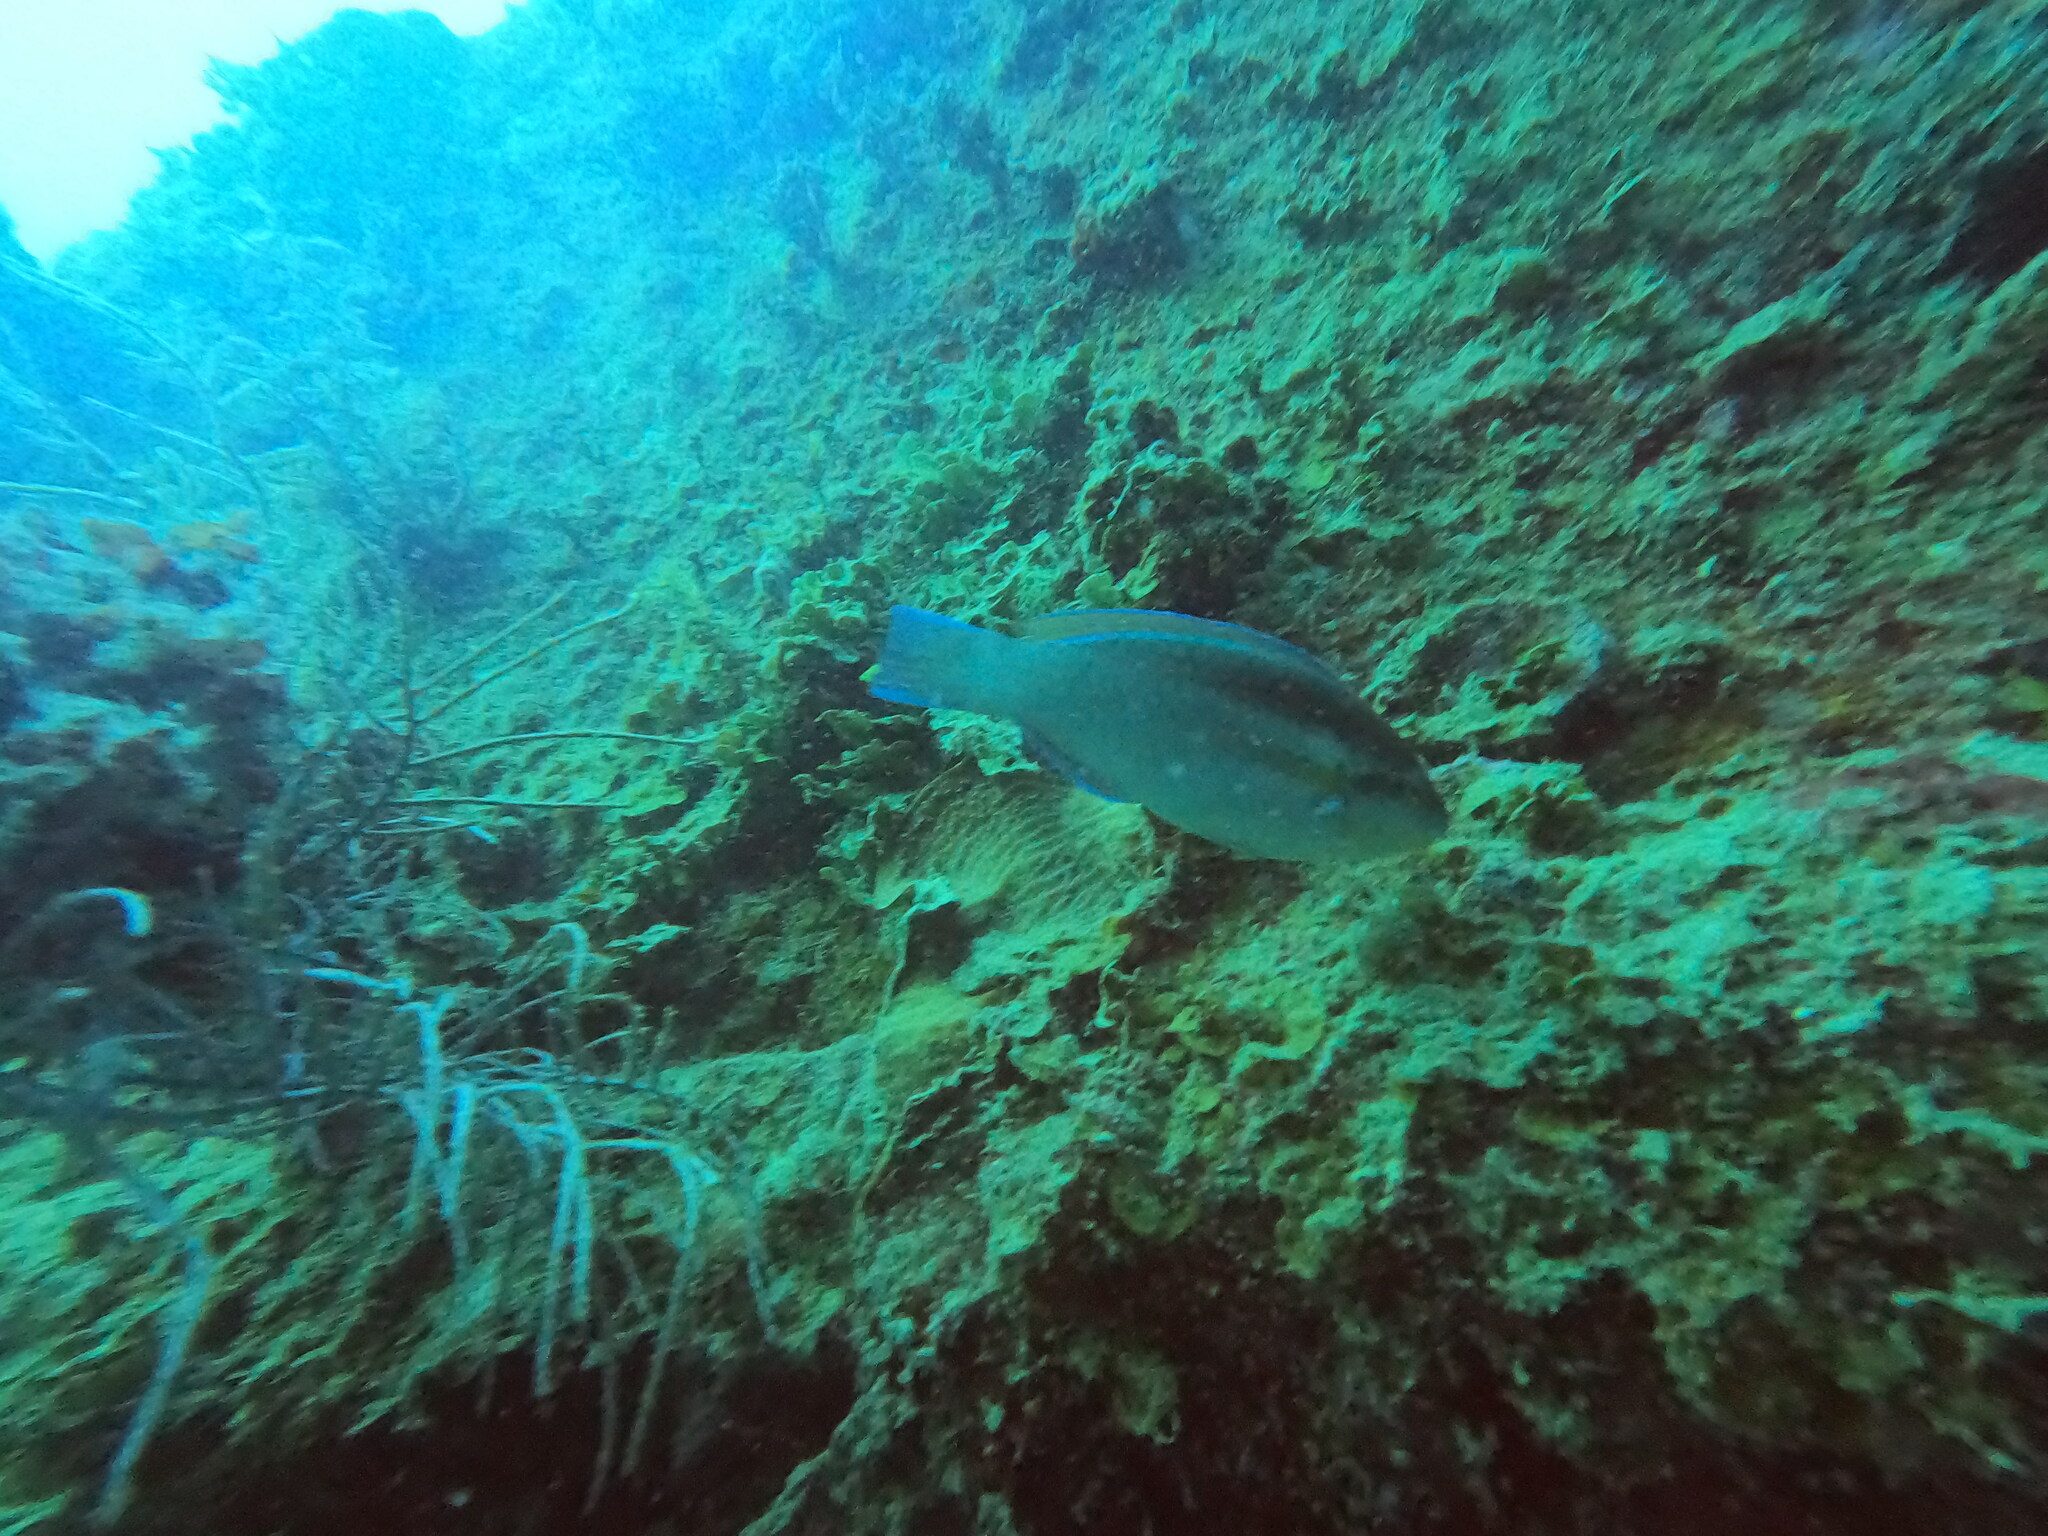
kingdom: Animalia
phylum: Chordata
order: Perciformes
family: Scaridae
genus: Scarus
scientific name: Scarus iseri
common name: Striped parrotfish
